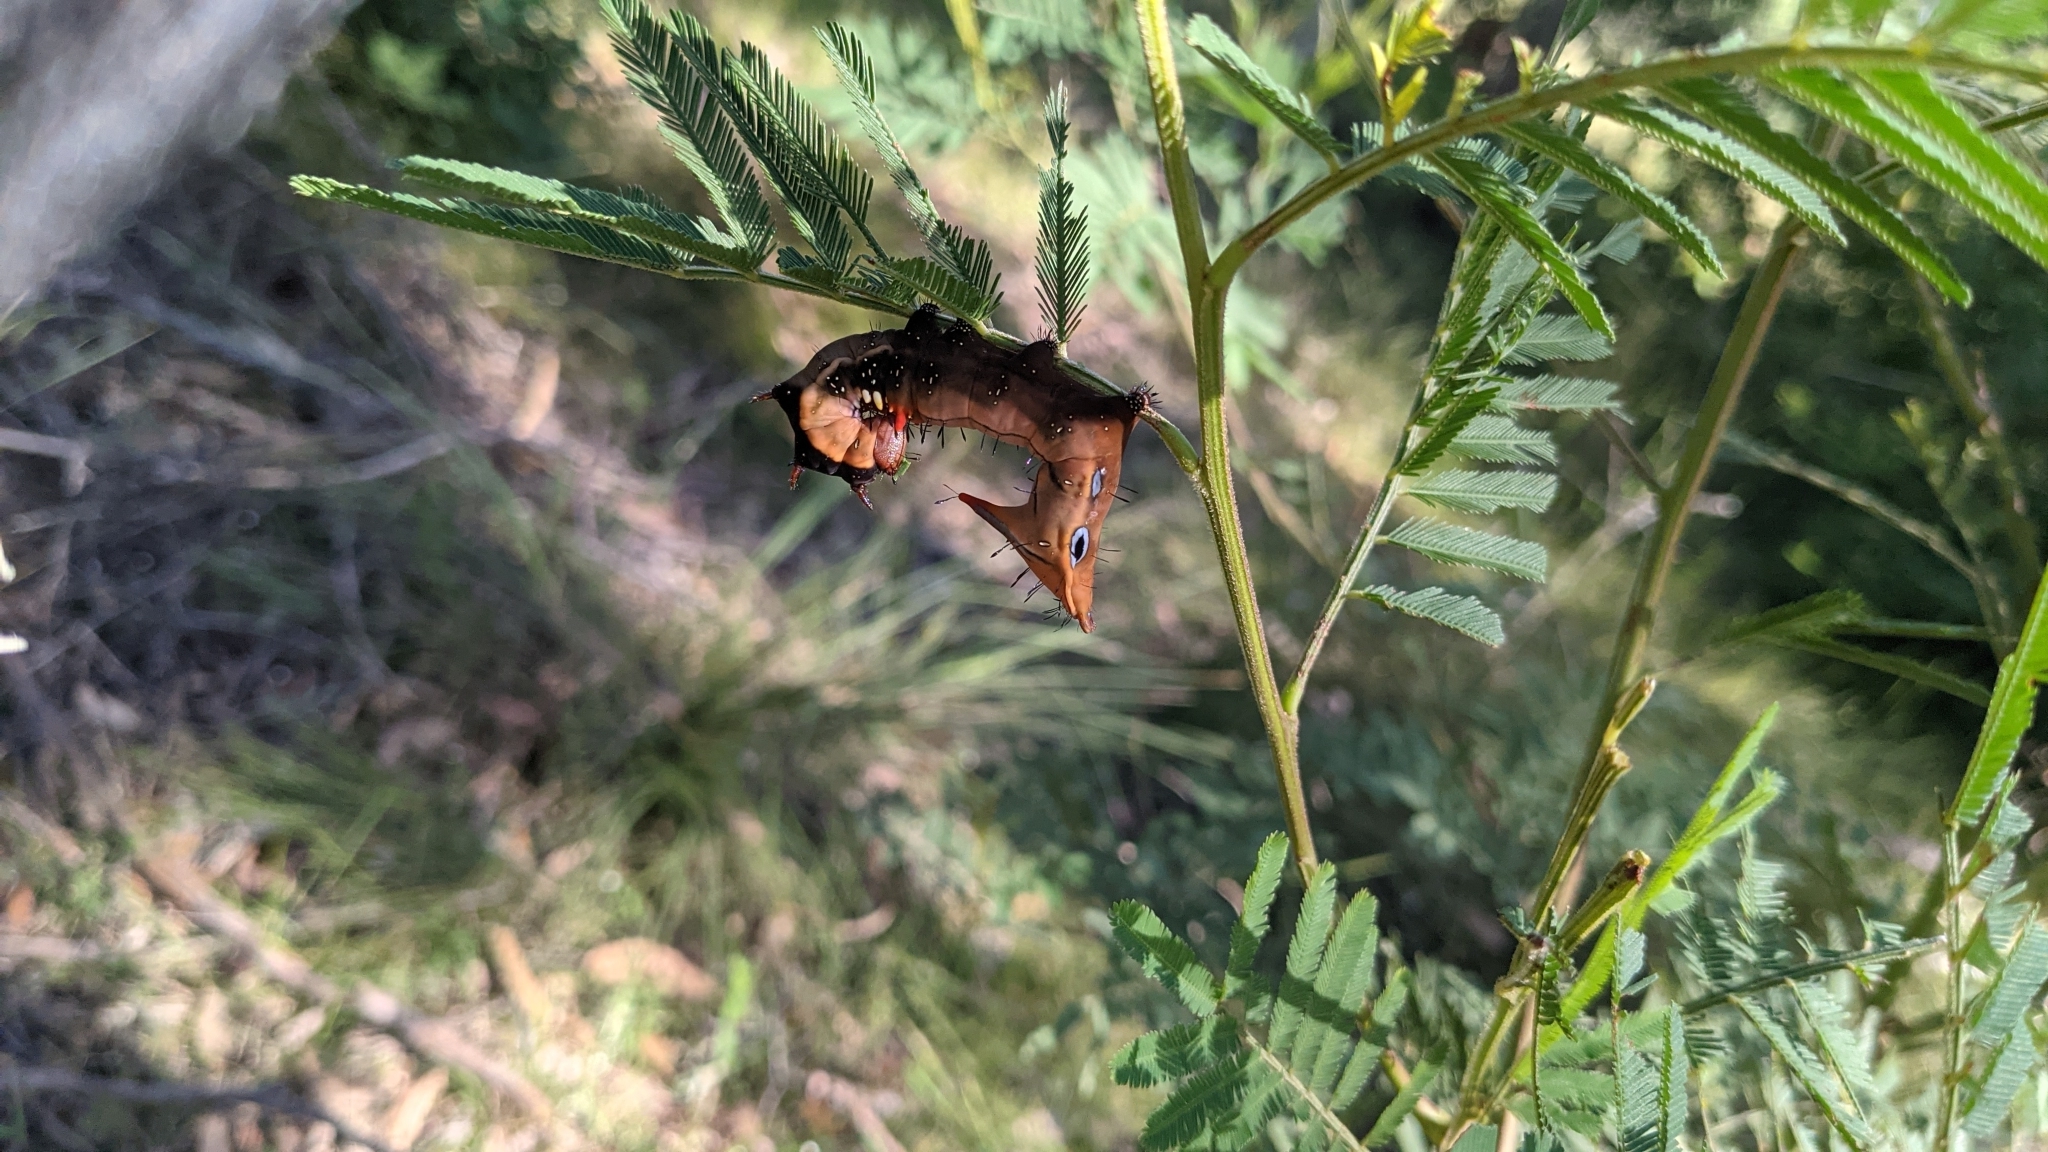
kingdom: Animalia
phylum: Arthropoda
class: Insecta
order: Lepidoptera
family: Notodontidae
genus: Neola
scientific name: Neola semiaurata
